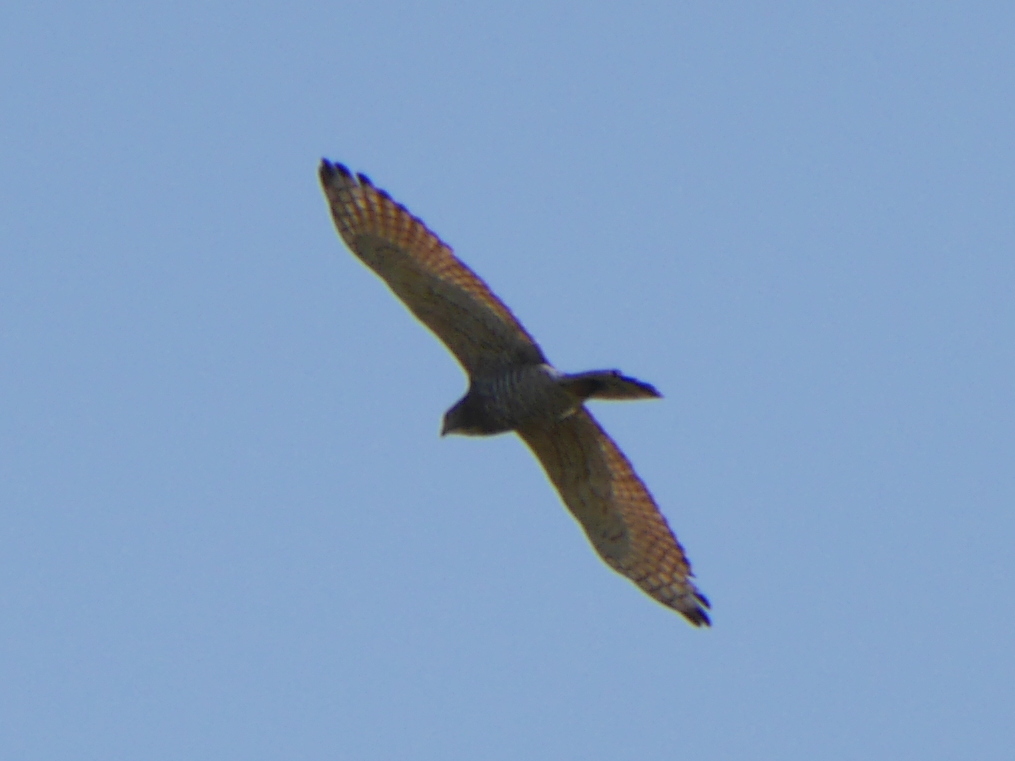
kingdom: Animalia
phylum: Chordata
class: Aves
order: Accipitriformes
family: Accipitridae
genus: Butastur
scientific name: Butastur indicus
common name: Grey-faced buzzard
